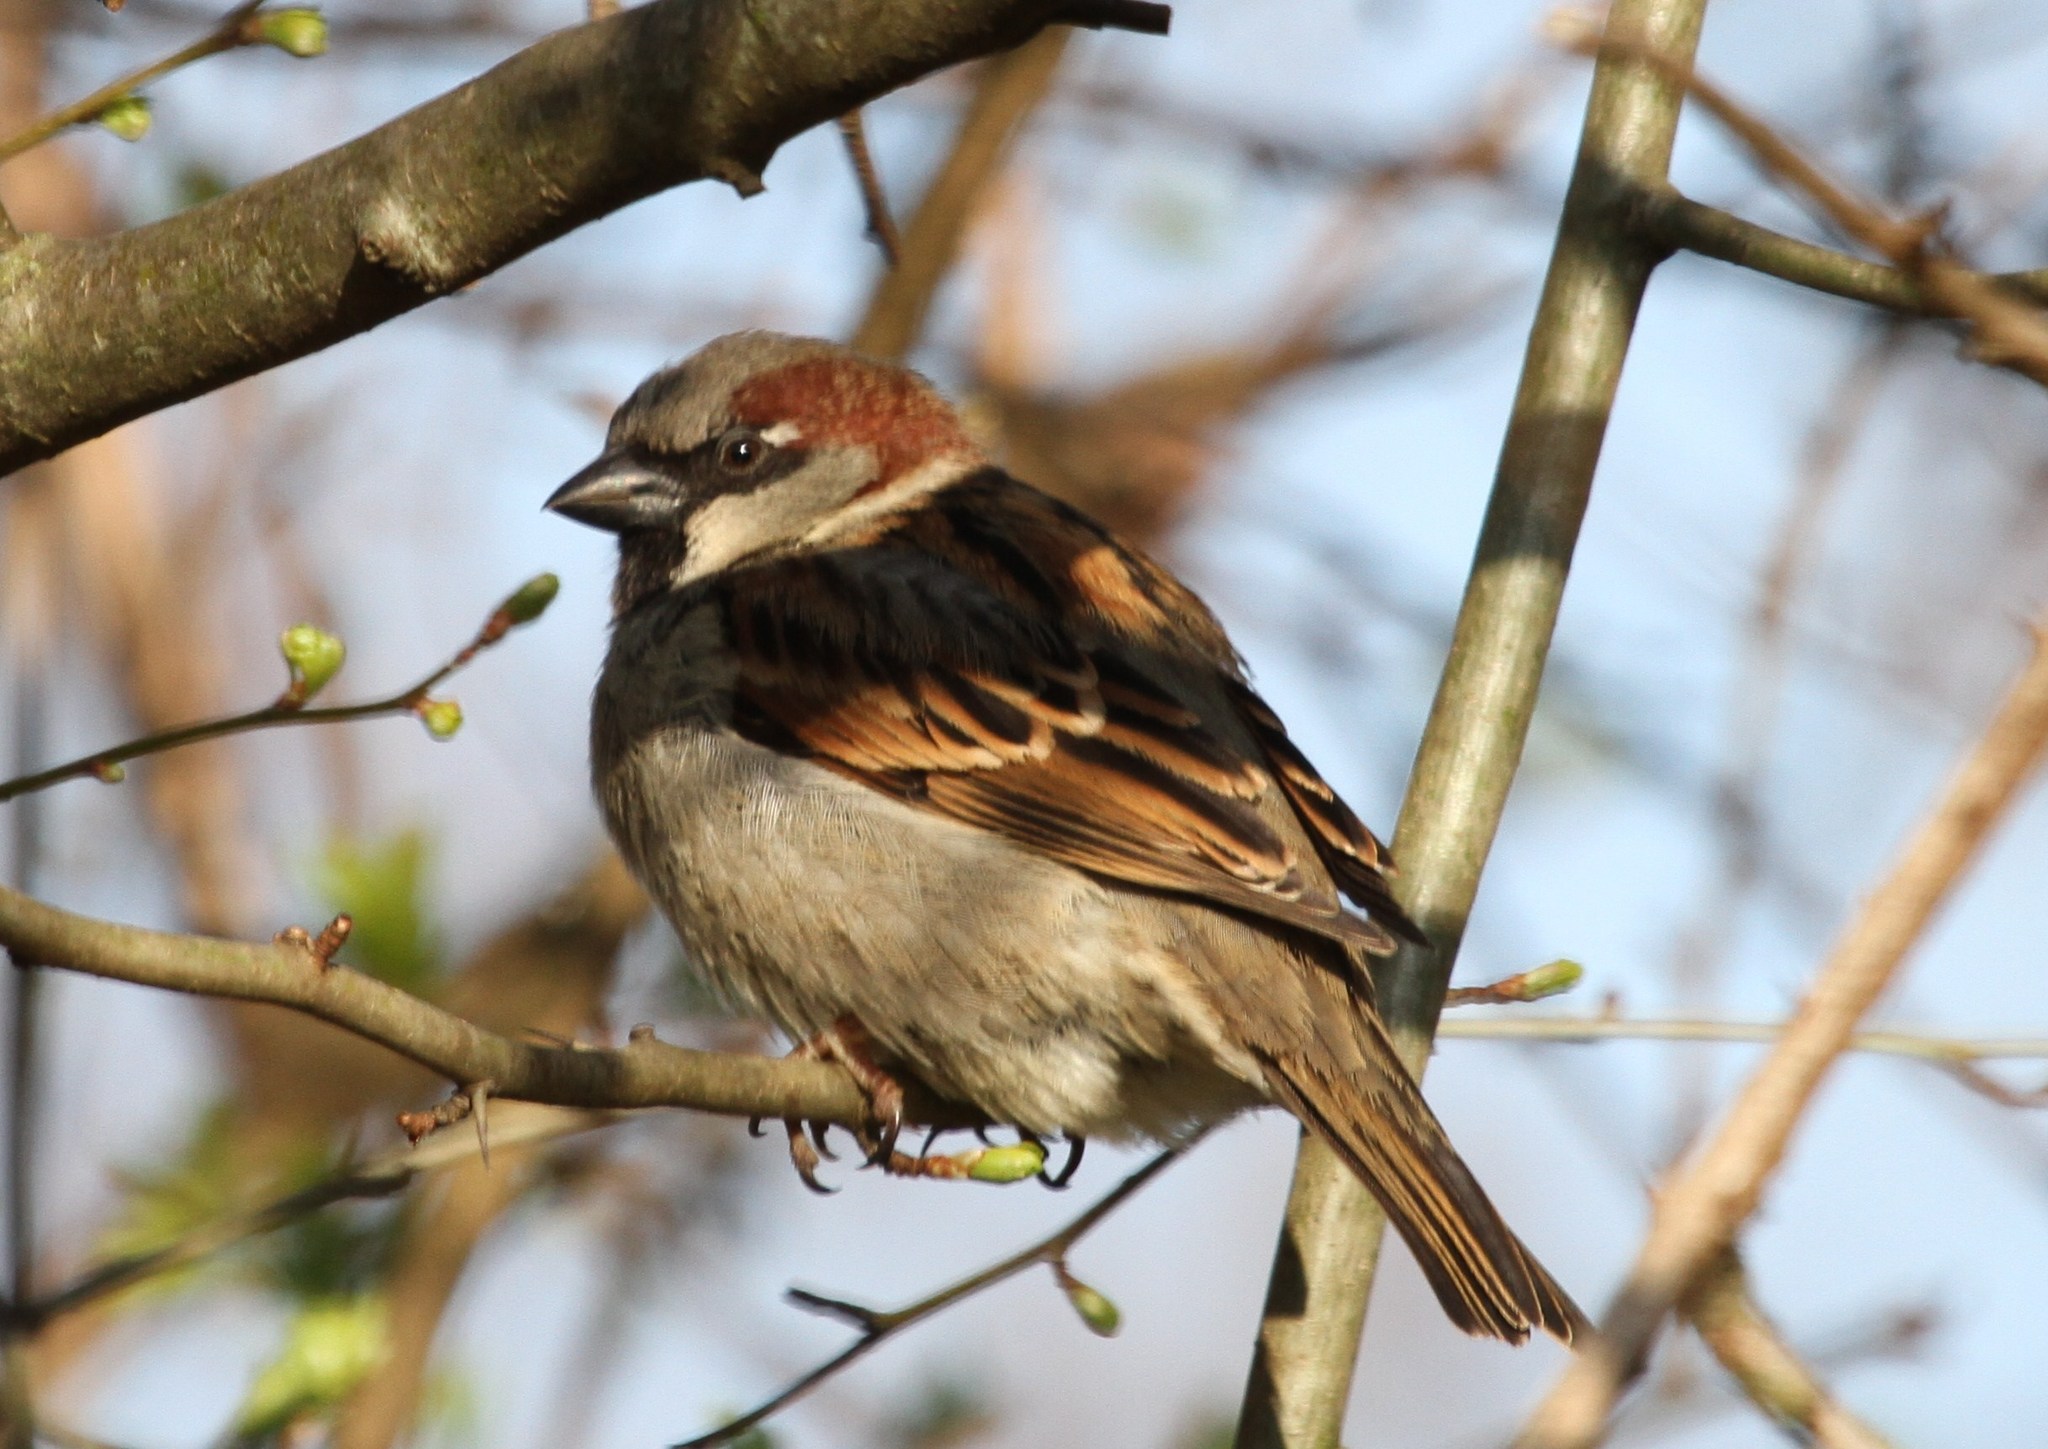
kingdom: Animalia
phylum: Chordata
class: Aves
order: Passeriformes
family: Passeridae
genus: Passer
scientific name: Passer domesticus
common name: House sparrow
